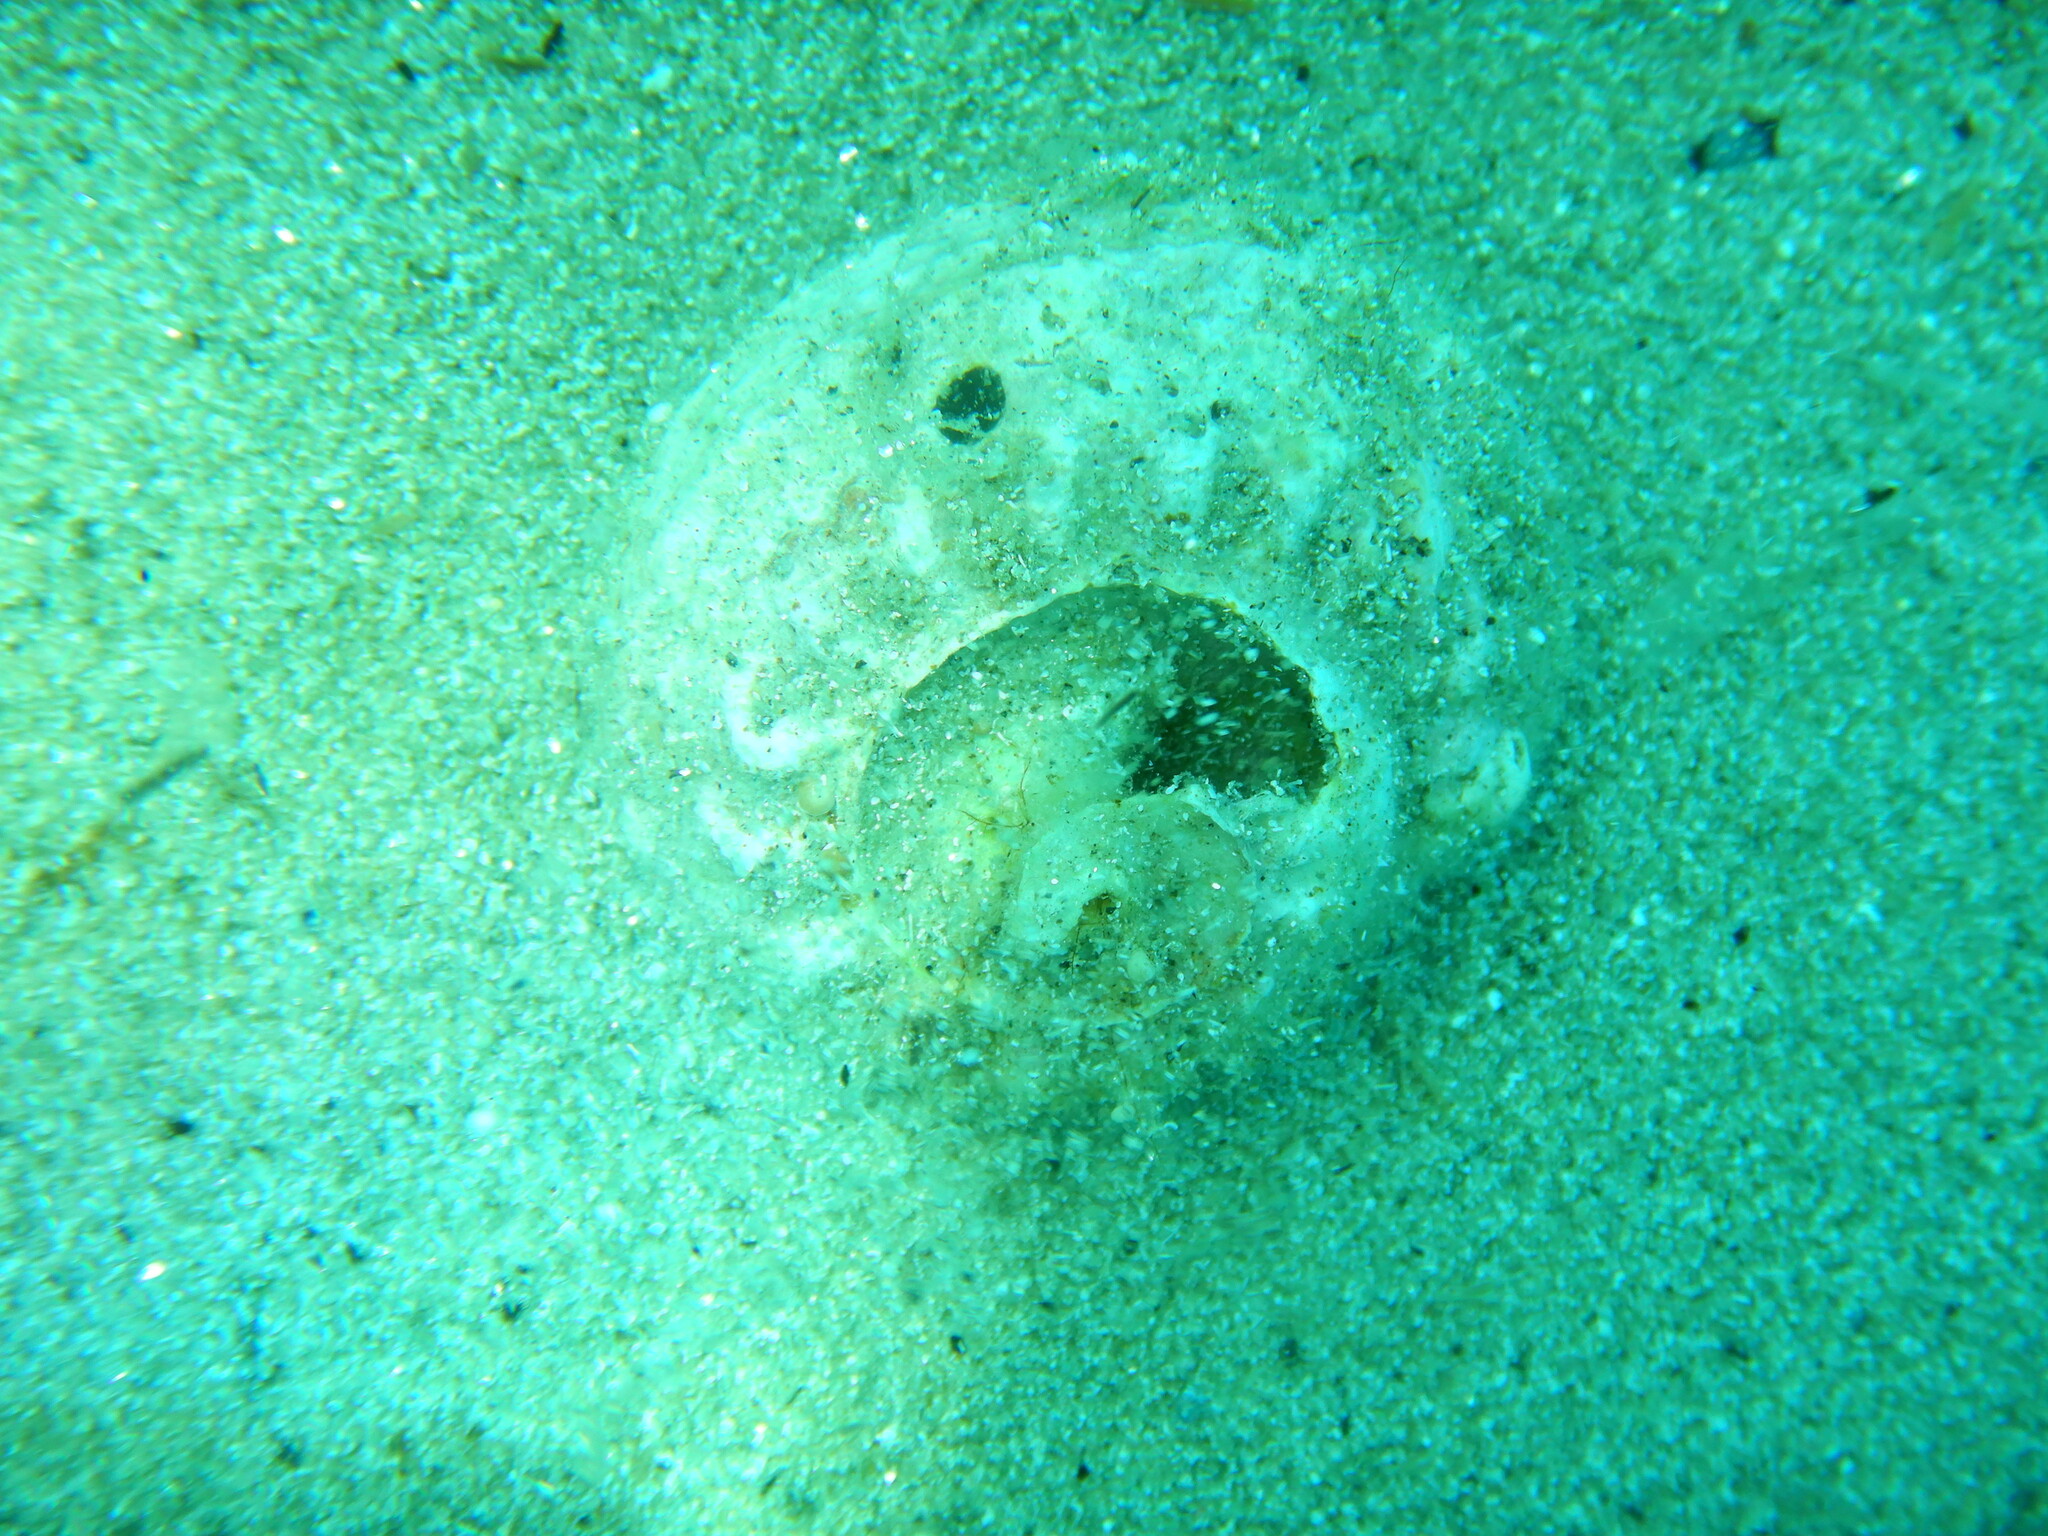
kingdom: Animalia
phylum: Mollusca
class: Gastropoda
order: Trochida
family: Turbinidae
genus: Bolma
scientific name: Bolma rugosa
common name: Rough star shell
